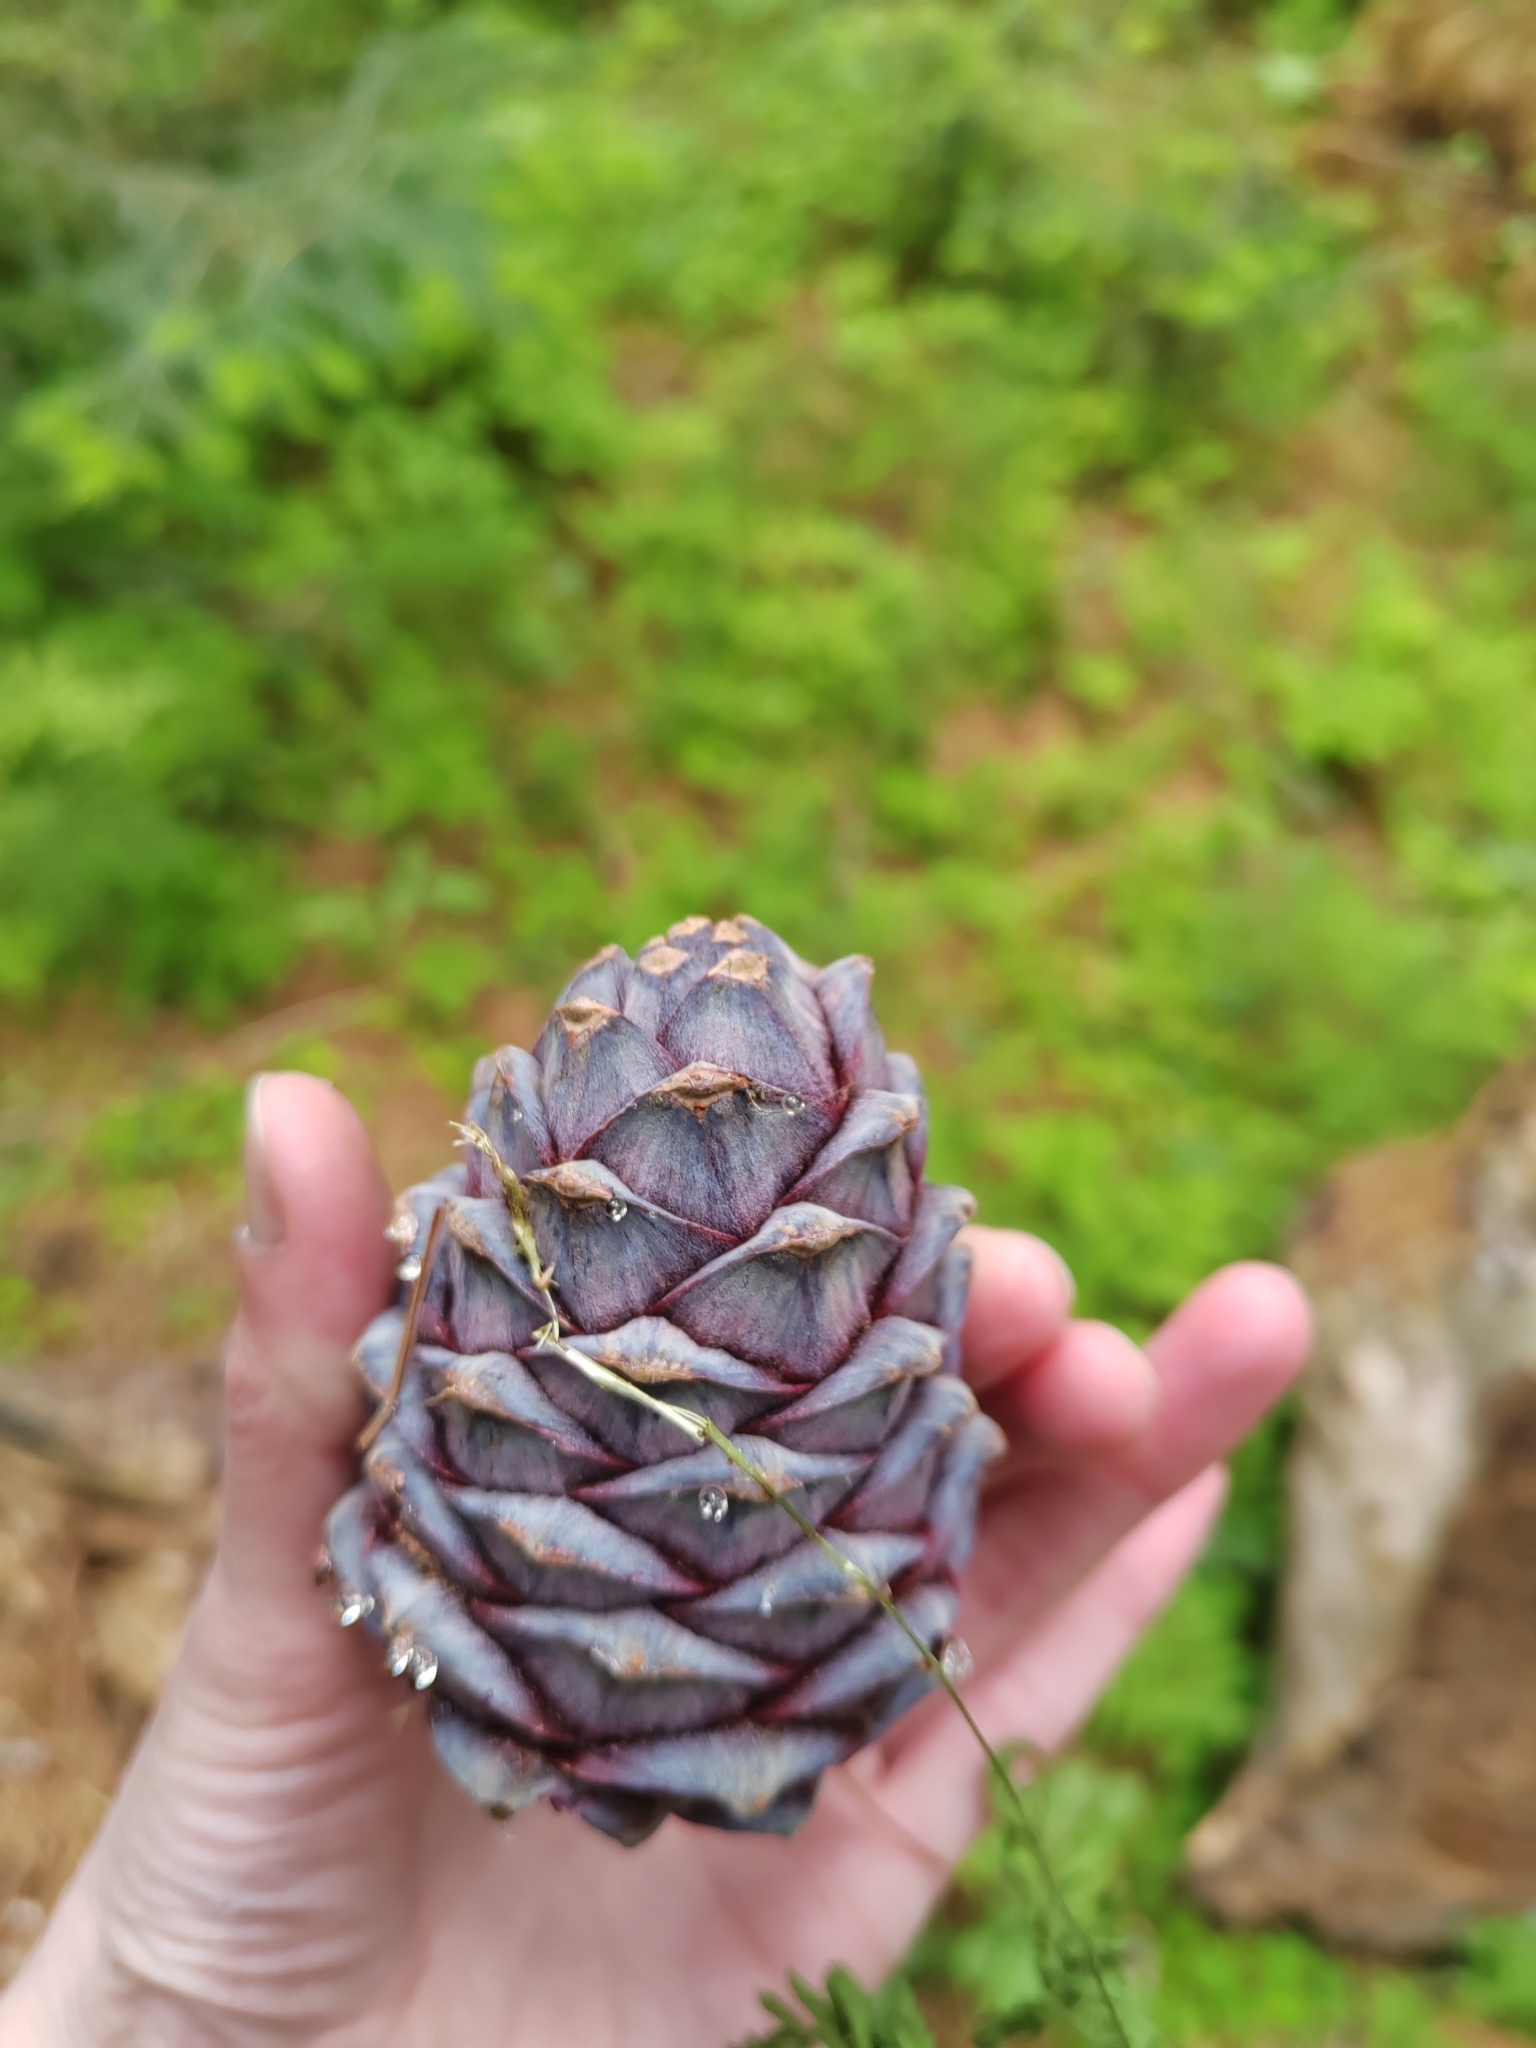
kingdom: Plantae
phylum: Tracheophyta
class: Pinopsida
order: Pinales
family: Pinaceae
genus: Pinus
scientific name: Pinus sibirica
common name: Siberian pine
